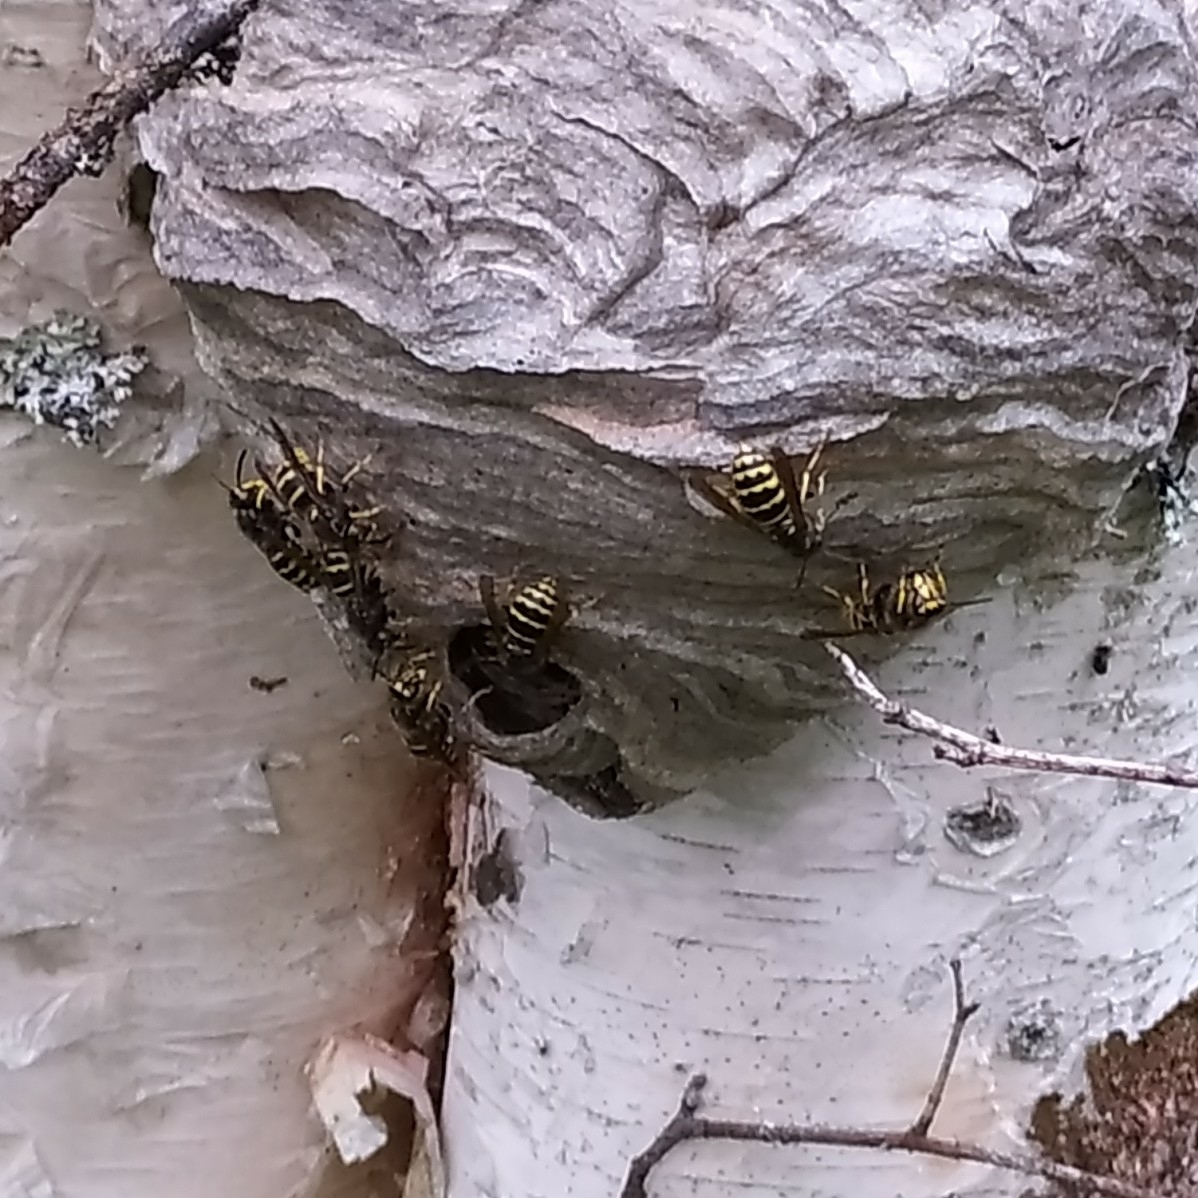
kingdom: Animalia
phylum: Arthropoda
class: Insecta
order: Hymenoptera
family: Vespidae
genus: Dolichovespula
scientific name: Dolichovespula media
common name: Median wasp
